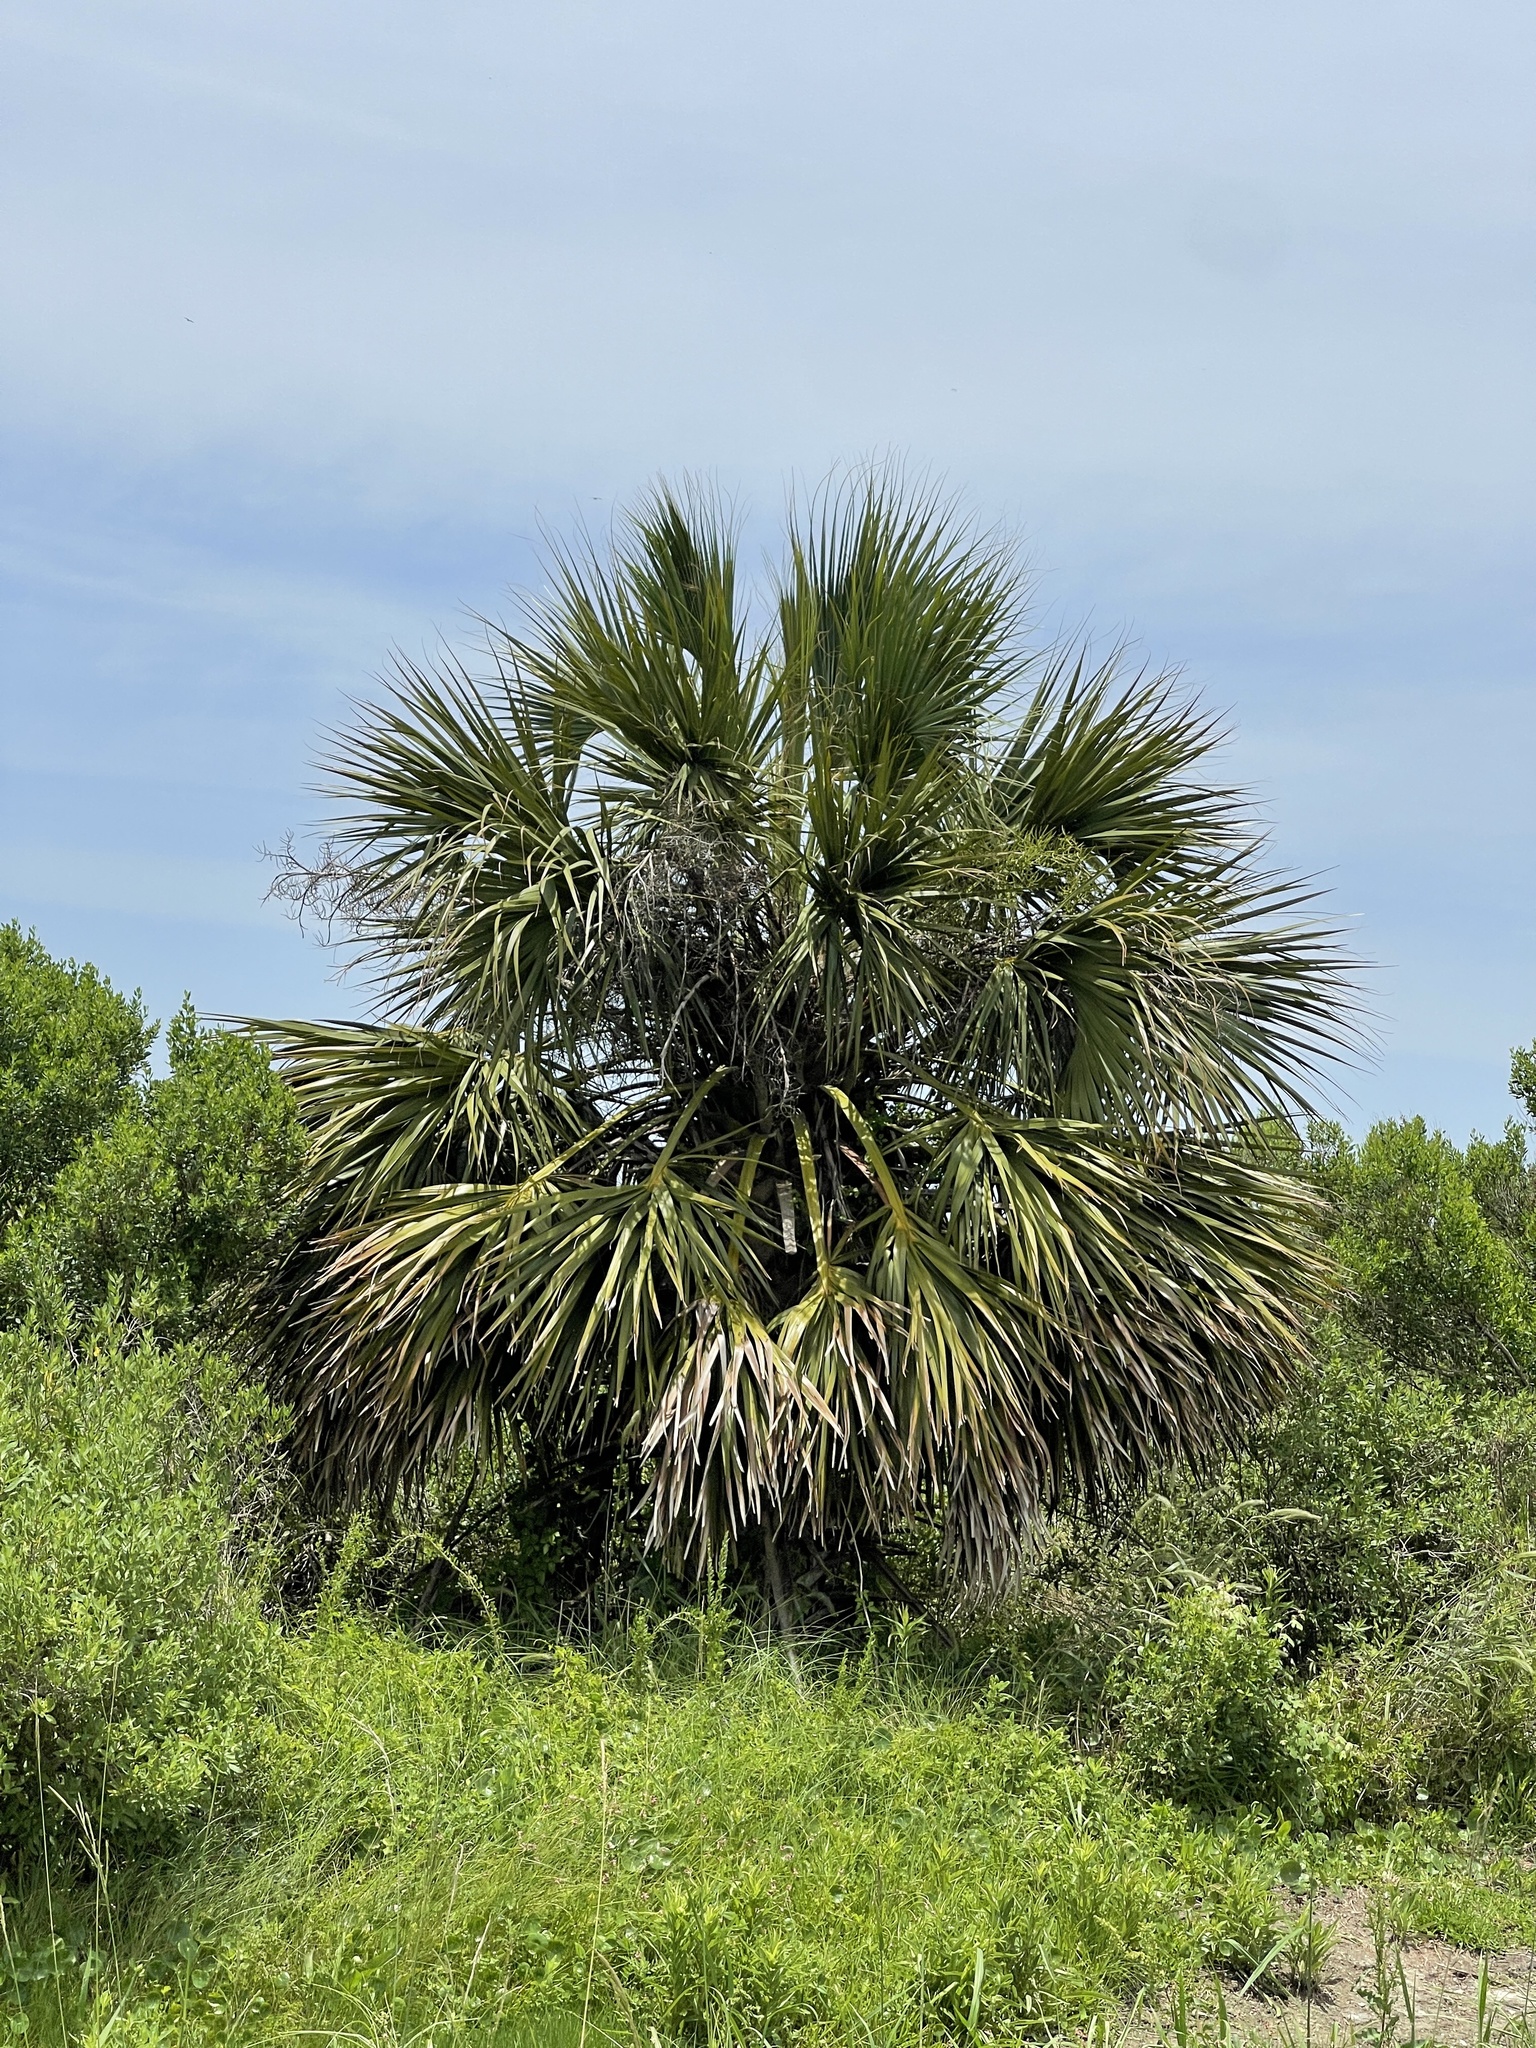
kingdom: Plantae
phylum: Tracheophyta
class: Liliopsida
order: Arecales
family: Arecaceae
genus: Sabal
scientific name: Sabal mexicana
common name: Texas palmetto
